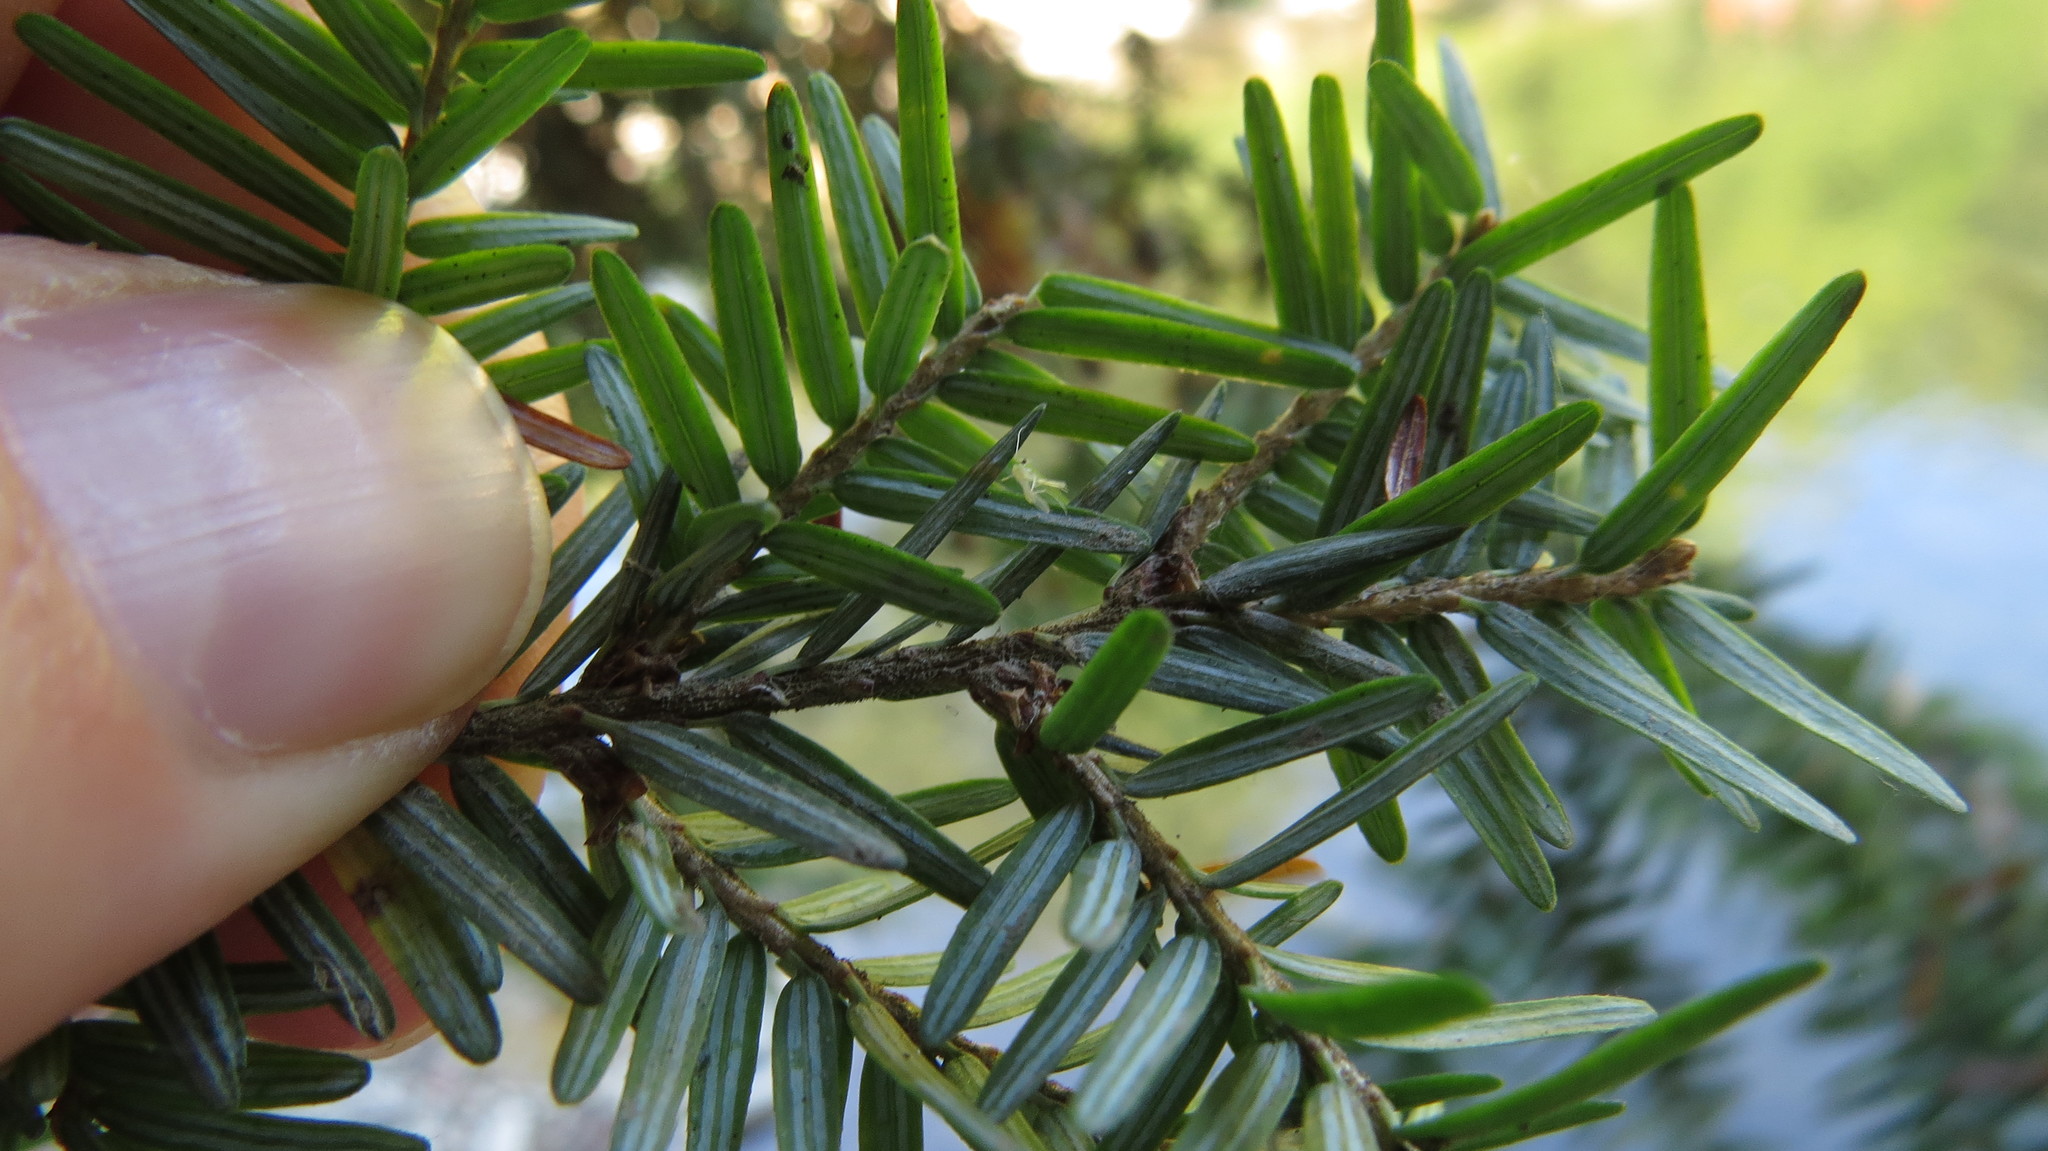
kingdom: Plantae
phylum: Tracheophyta
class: Pinopsida
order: Pinales
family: Pinaceae
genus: Tsuga
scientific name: Tsuga canadensis
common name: Eastern hemlock
